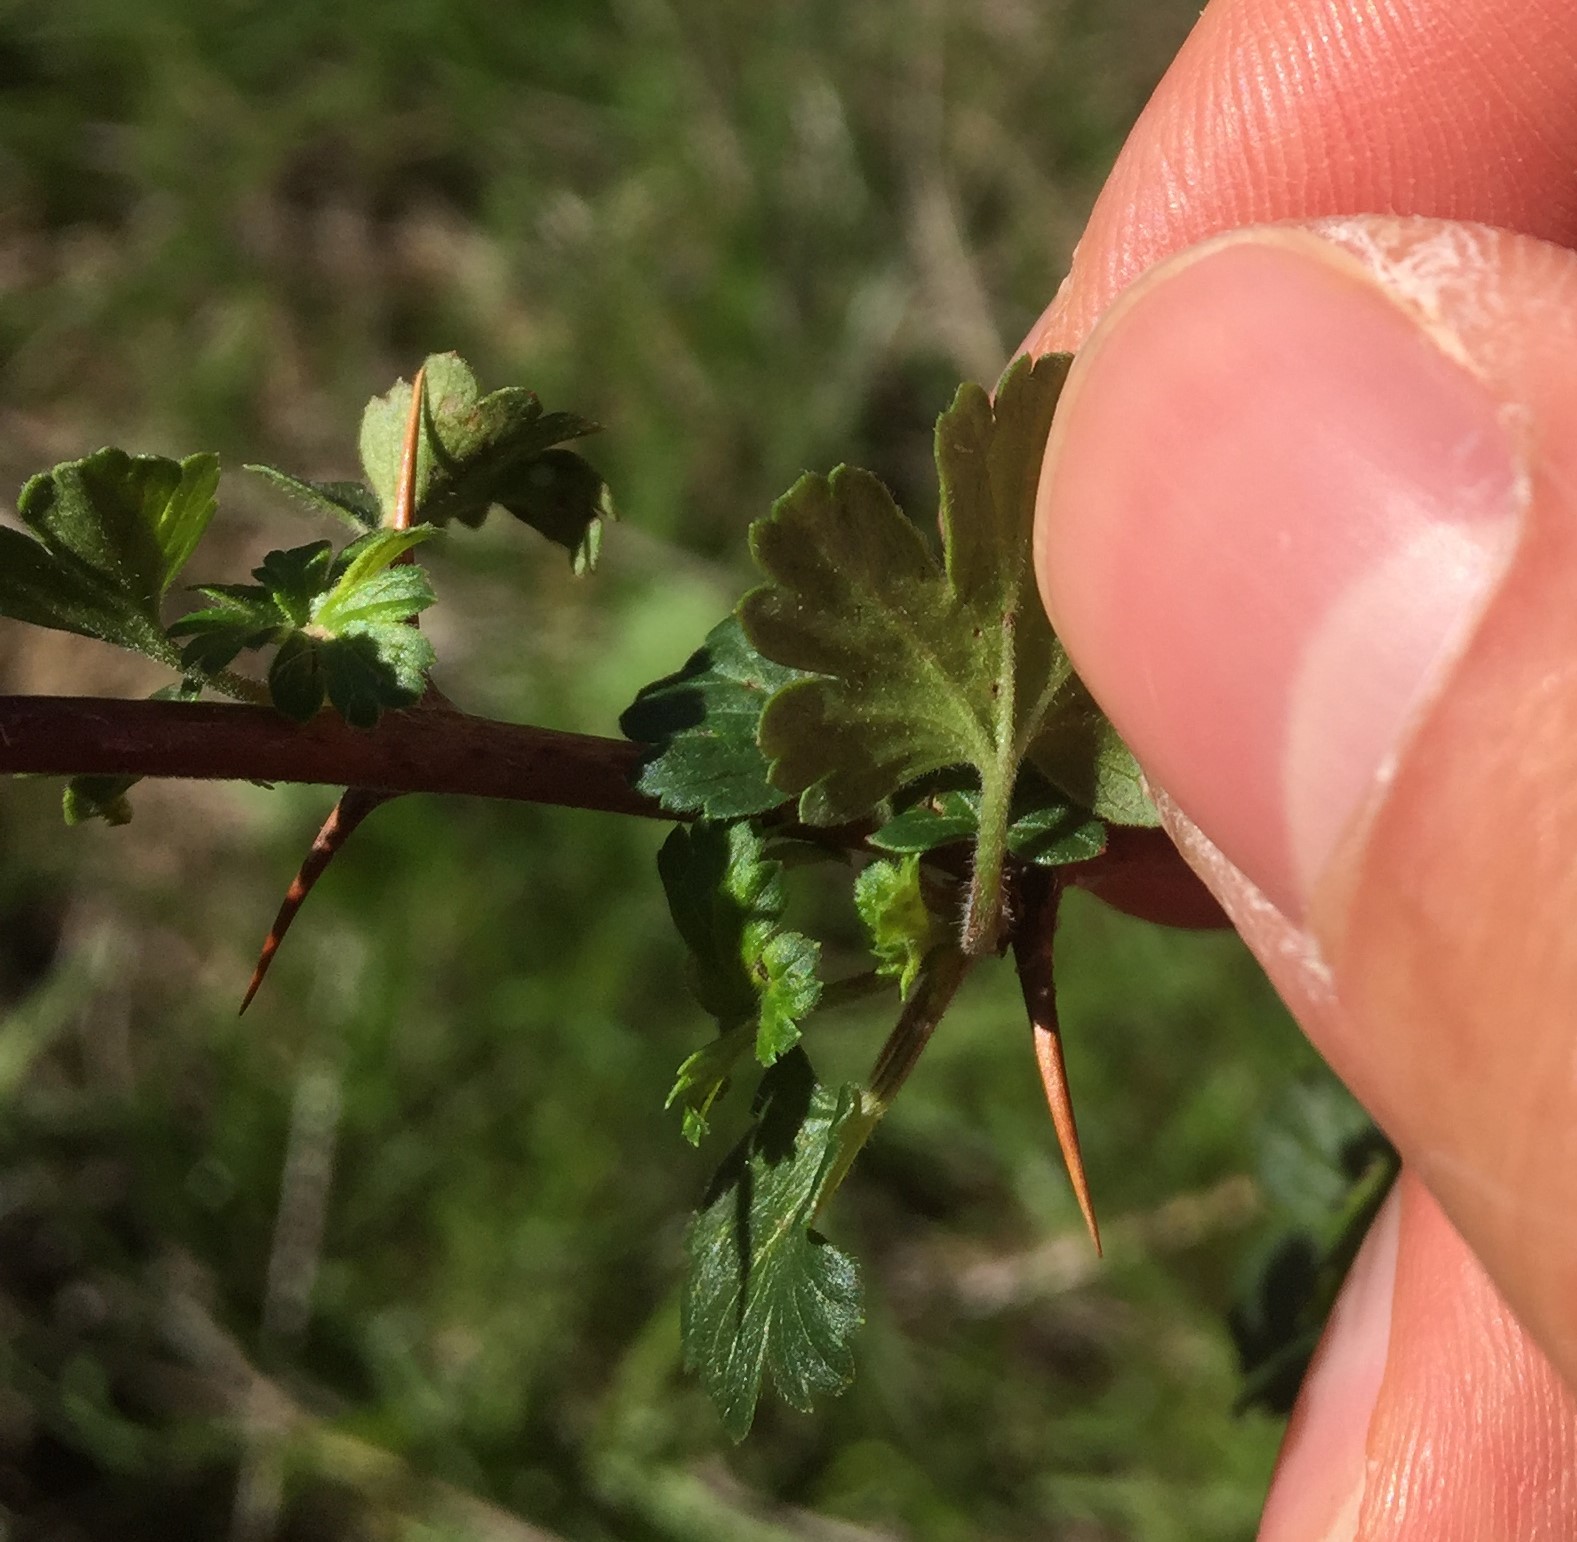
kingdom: Plantae
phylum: Tracheophyta
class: Magnoliopsida
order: Saxifragales
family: Grossulariaceae
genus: Ribes
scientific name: Ribes californicum
